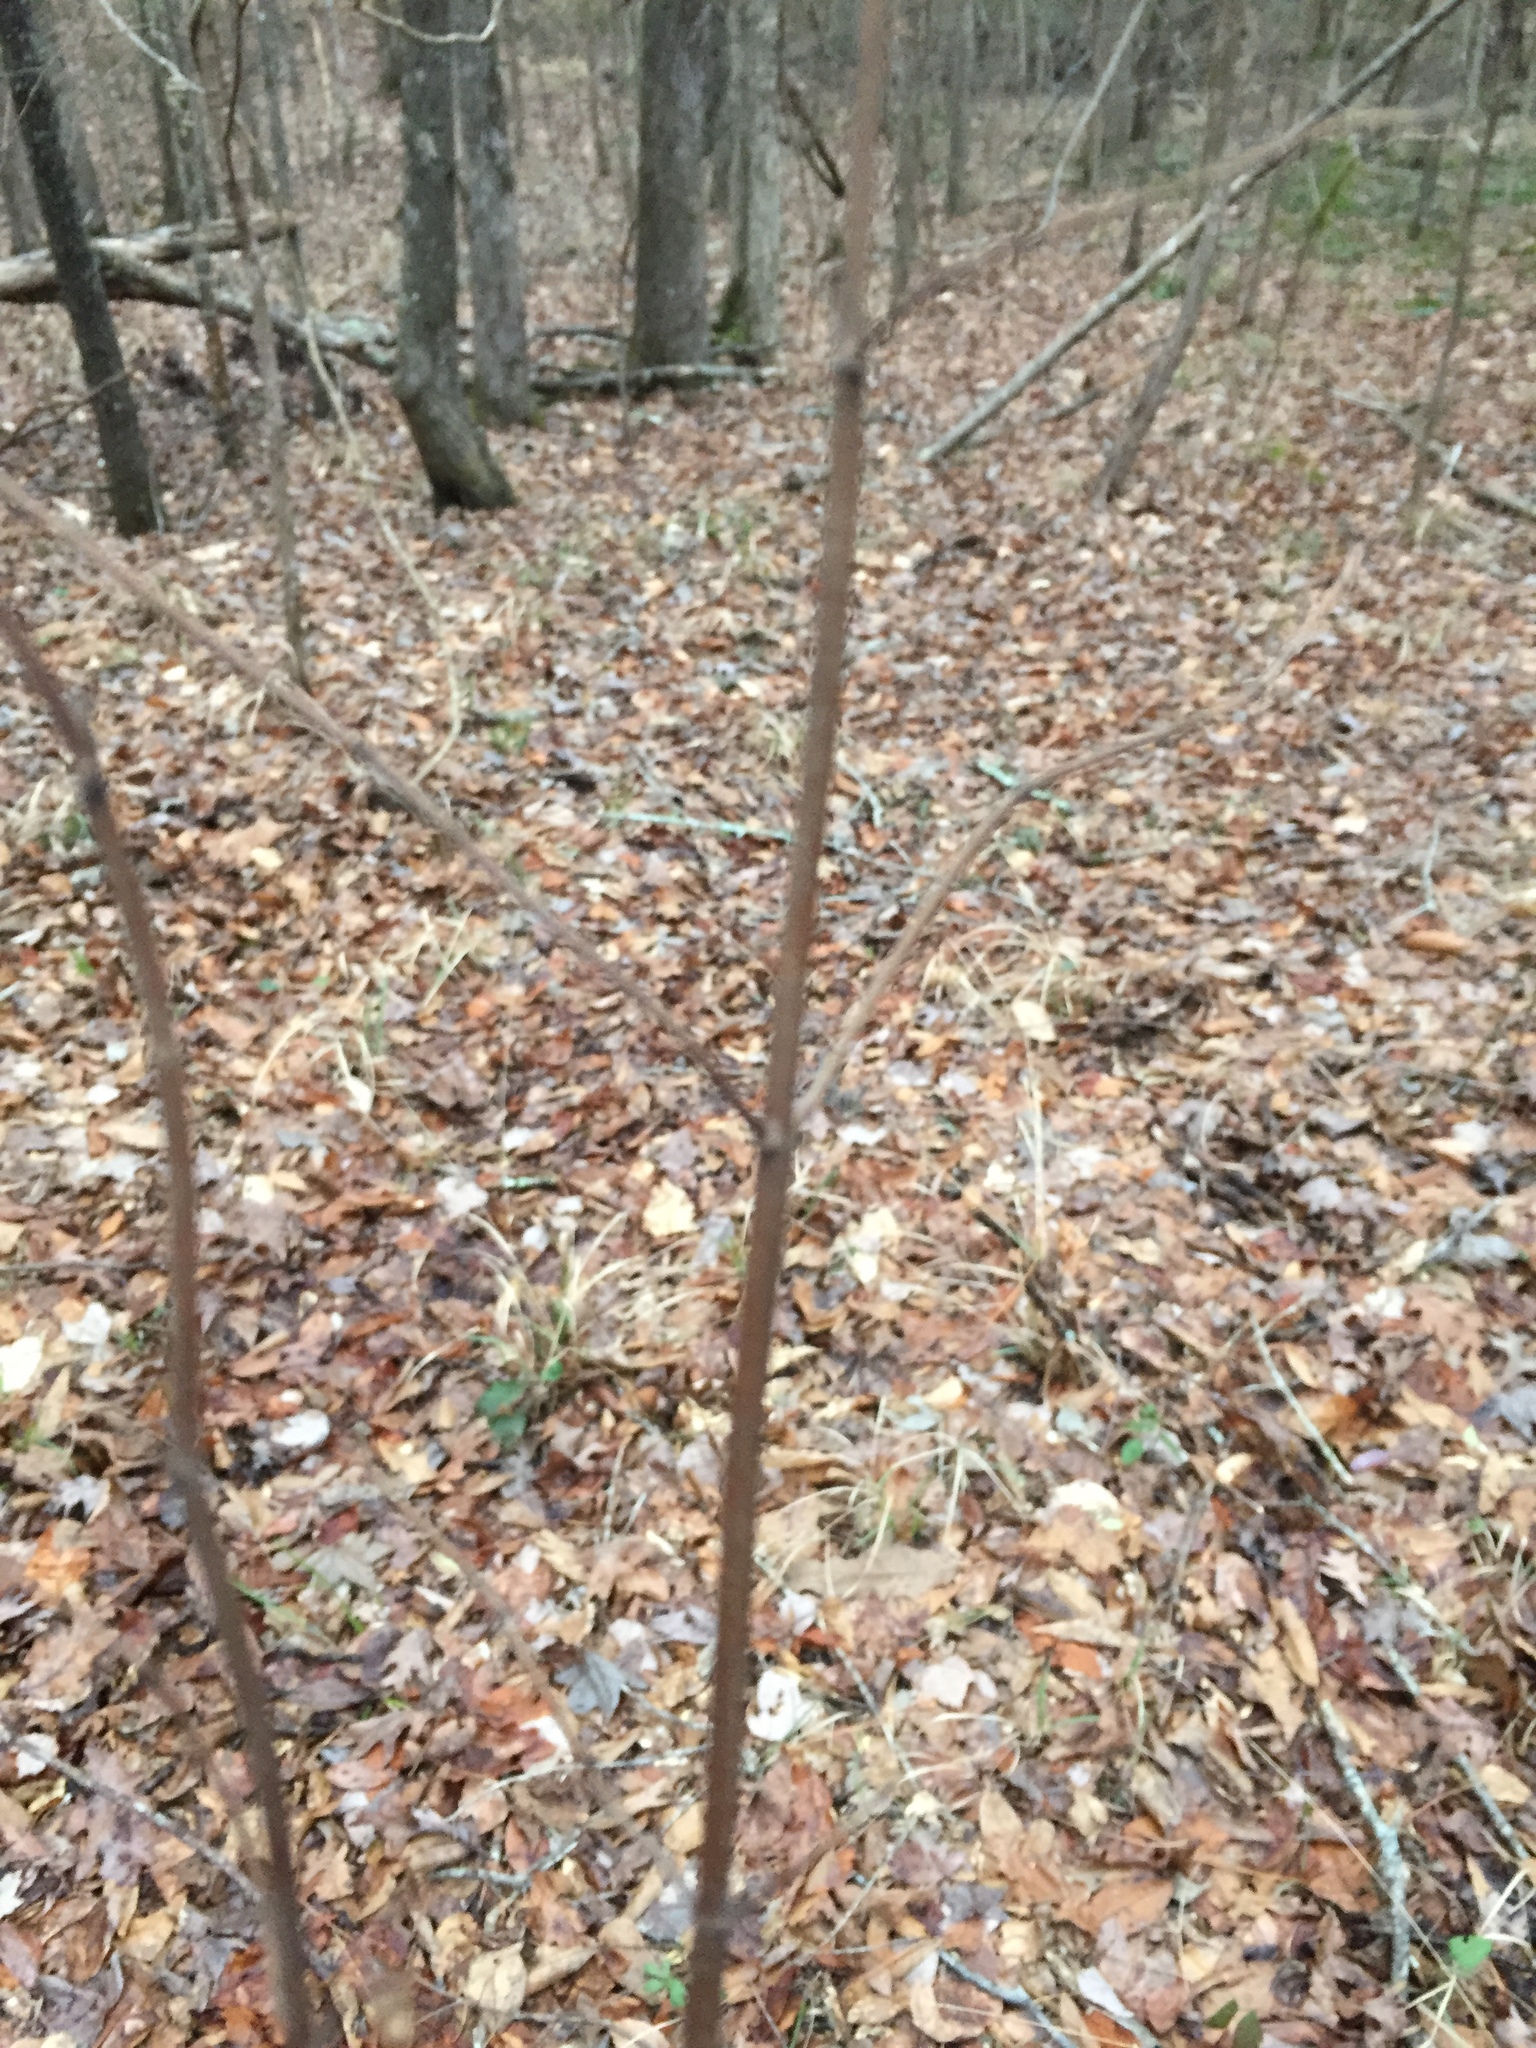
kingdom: Plantae
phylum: Tracheophyta
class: Magnoliopsida
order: Lamiales
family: Lamiaceae
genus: Pycnanthemum
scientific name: Pycnanthemum albescens
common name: White-leaf mountain-mint
